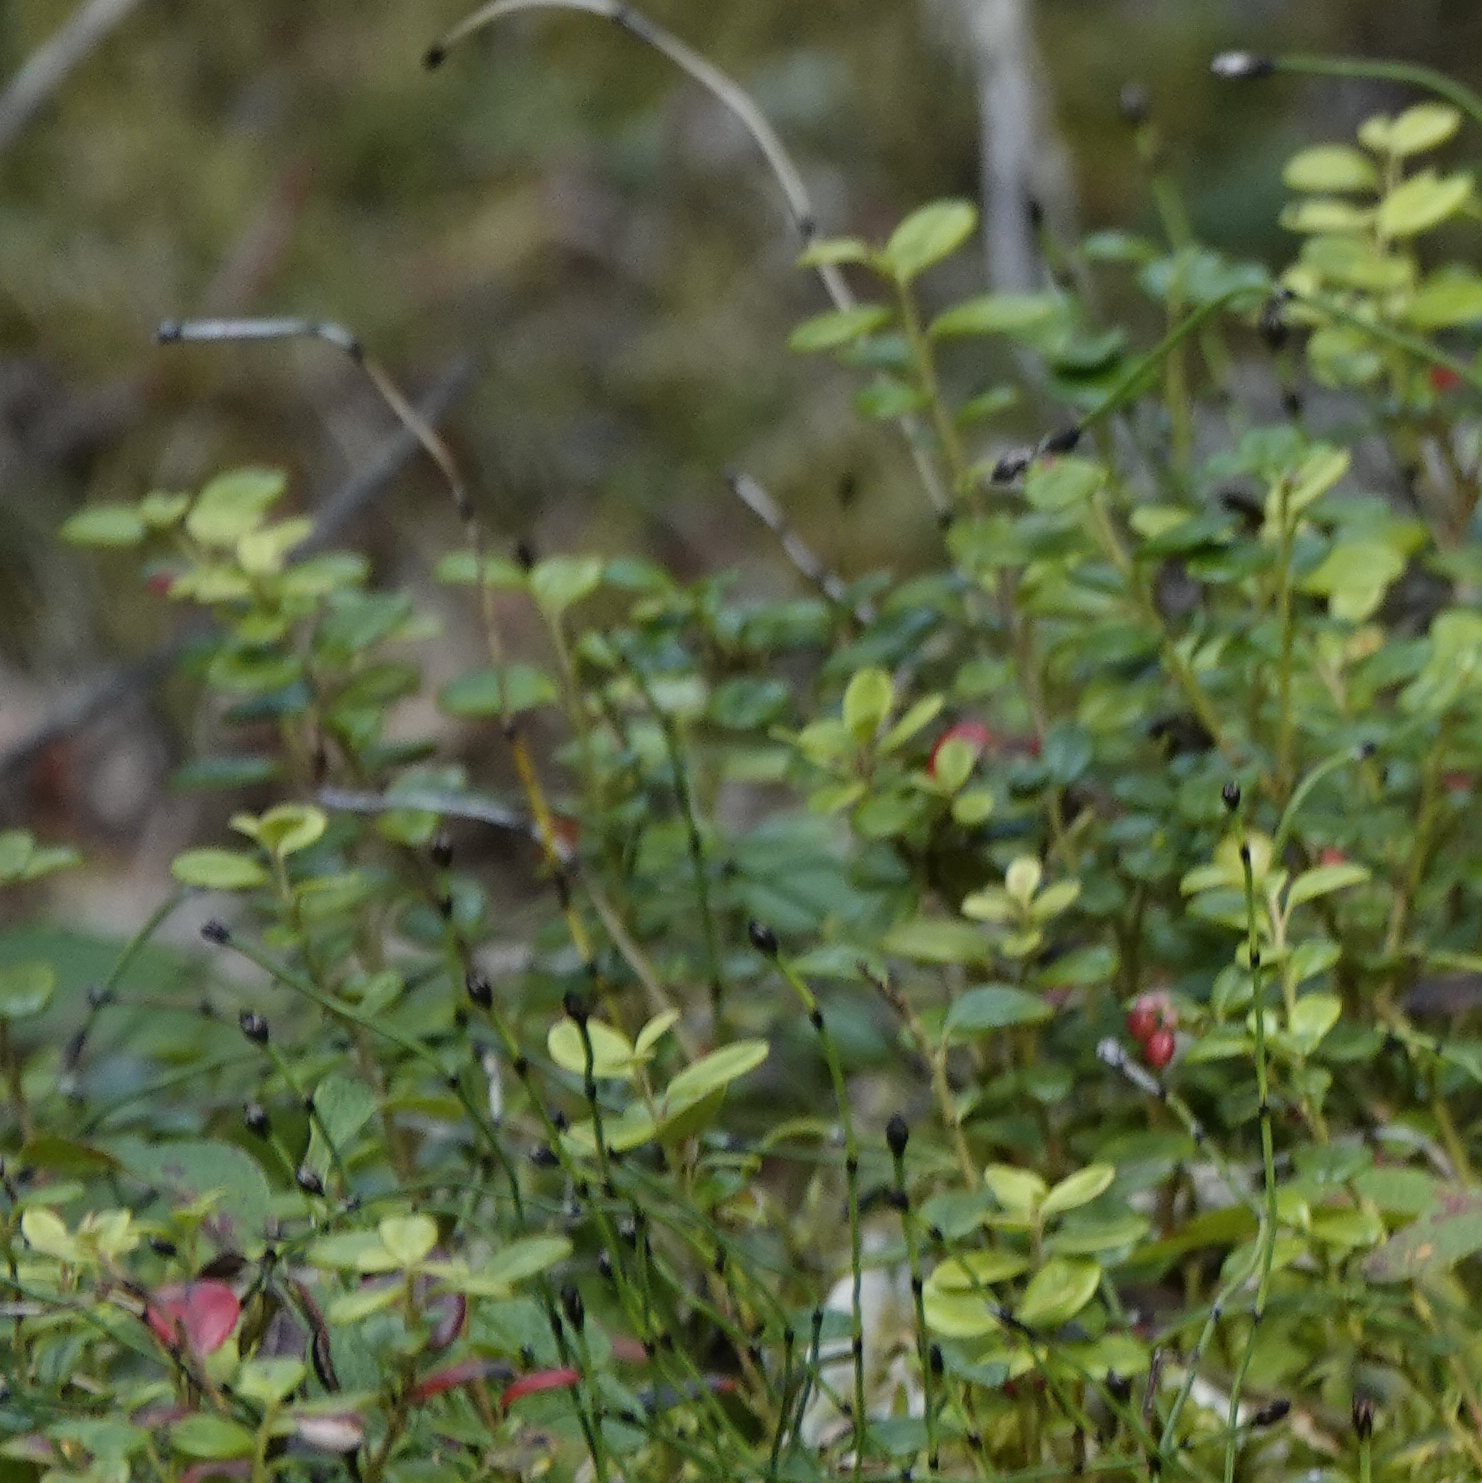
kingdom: Plantae
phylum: Tracheophyta
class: Magnoliopsida
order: Ericales
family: Ericaceae
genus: Vaccinium
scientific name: Vaccinium vitis-idaea
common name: Cowberry
